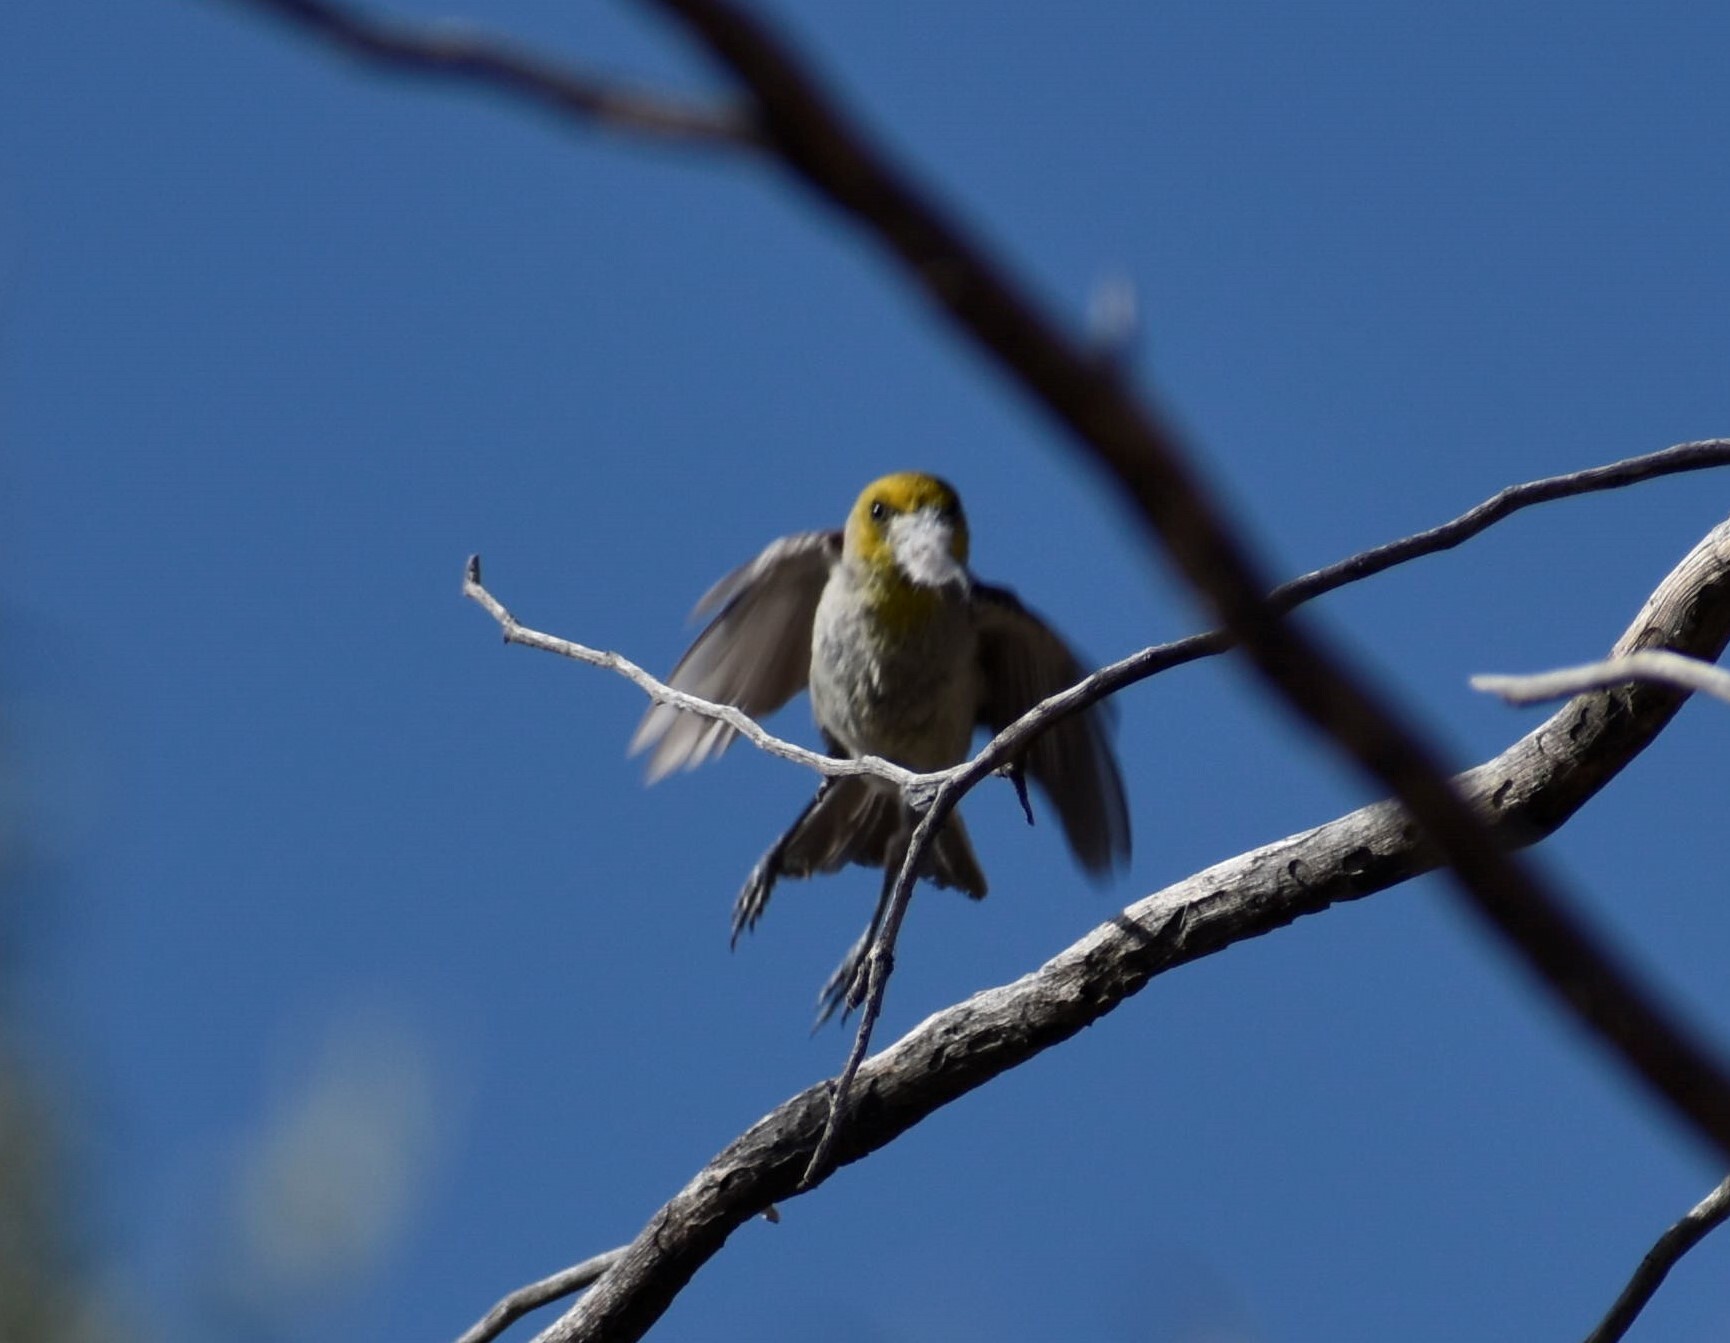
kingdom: Animalia
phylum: Chordata
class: Aves
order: Passeriformes
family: Remizidae
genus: Auriparus
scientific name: Auriparus flaviceps
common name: Verdin
